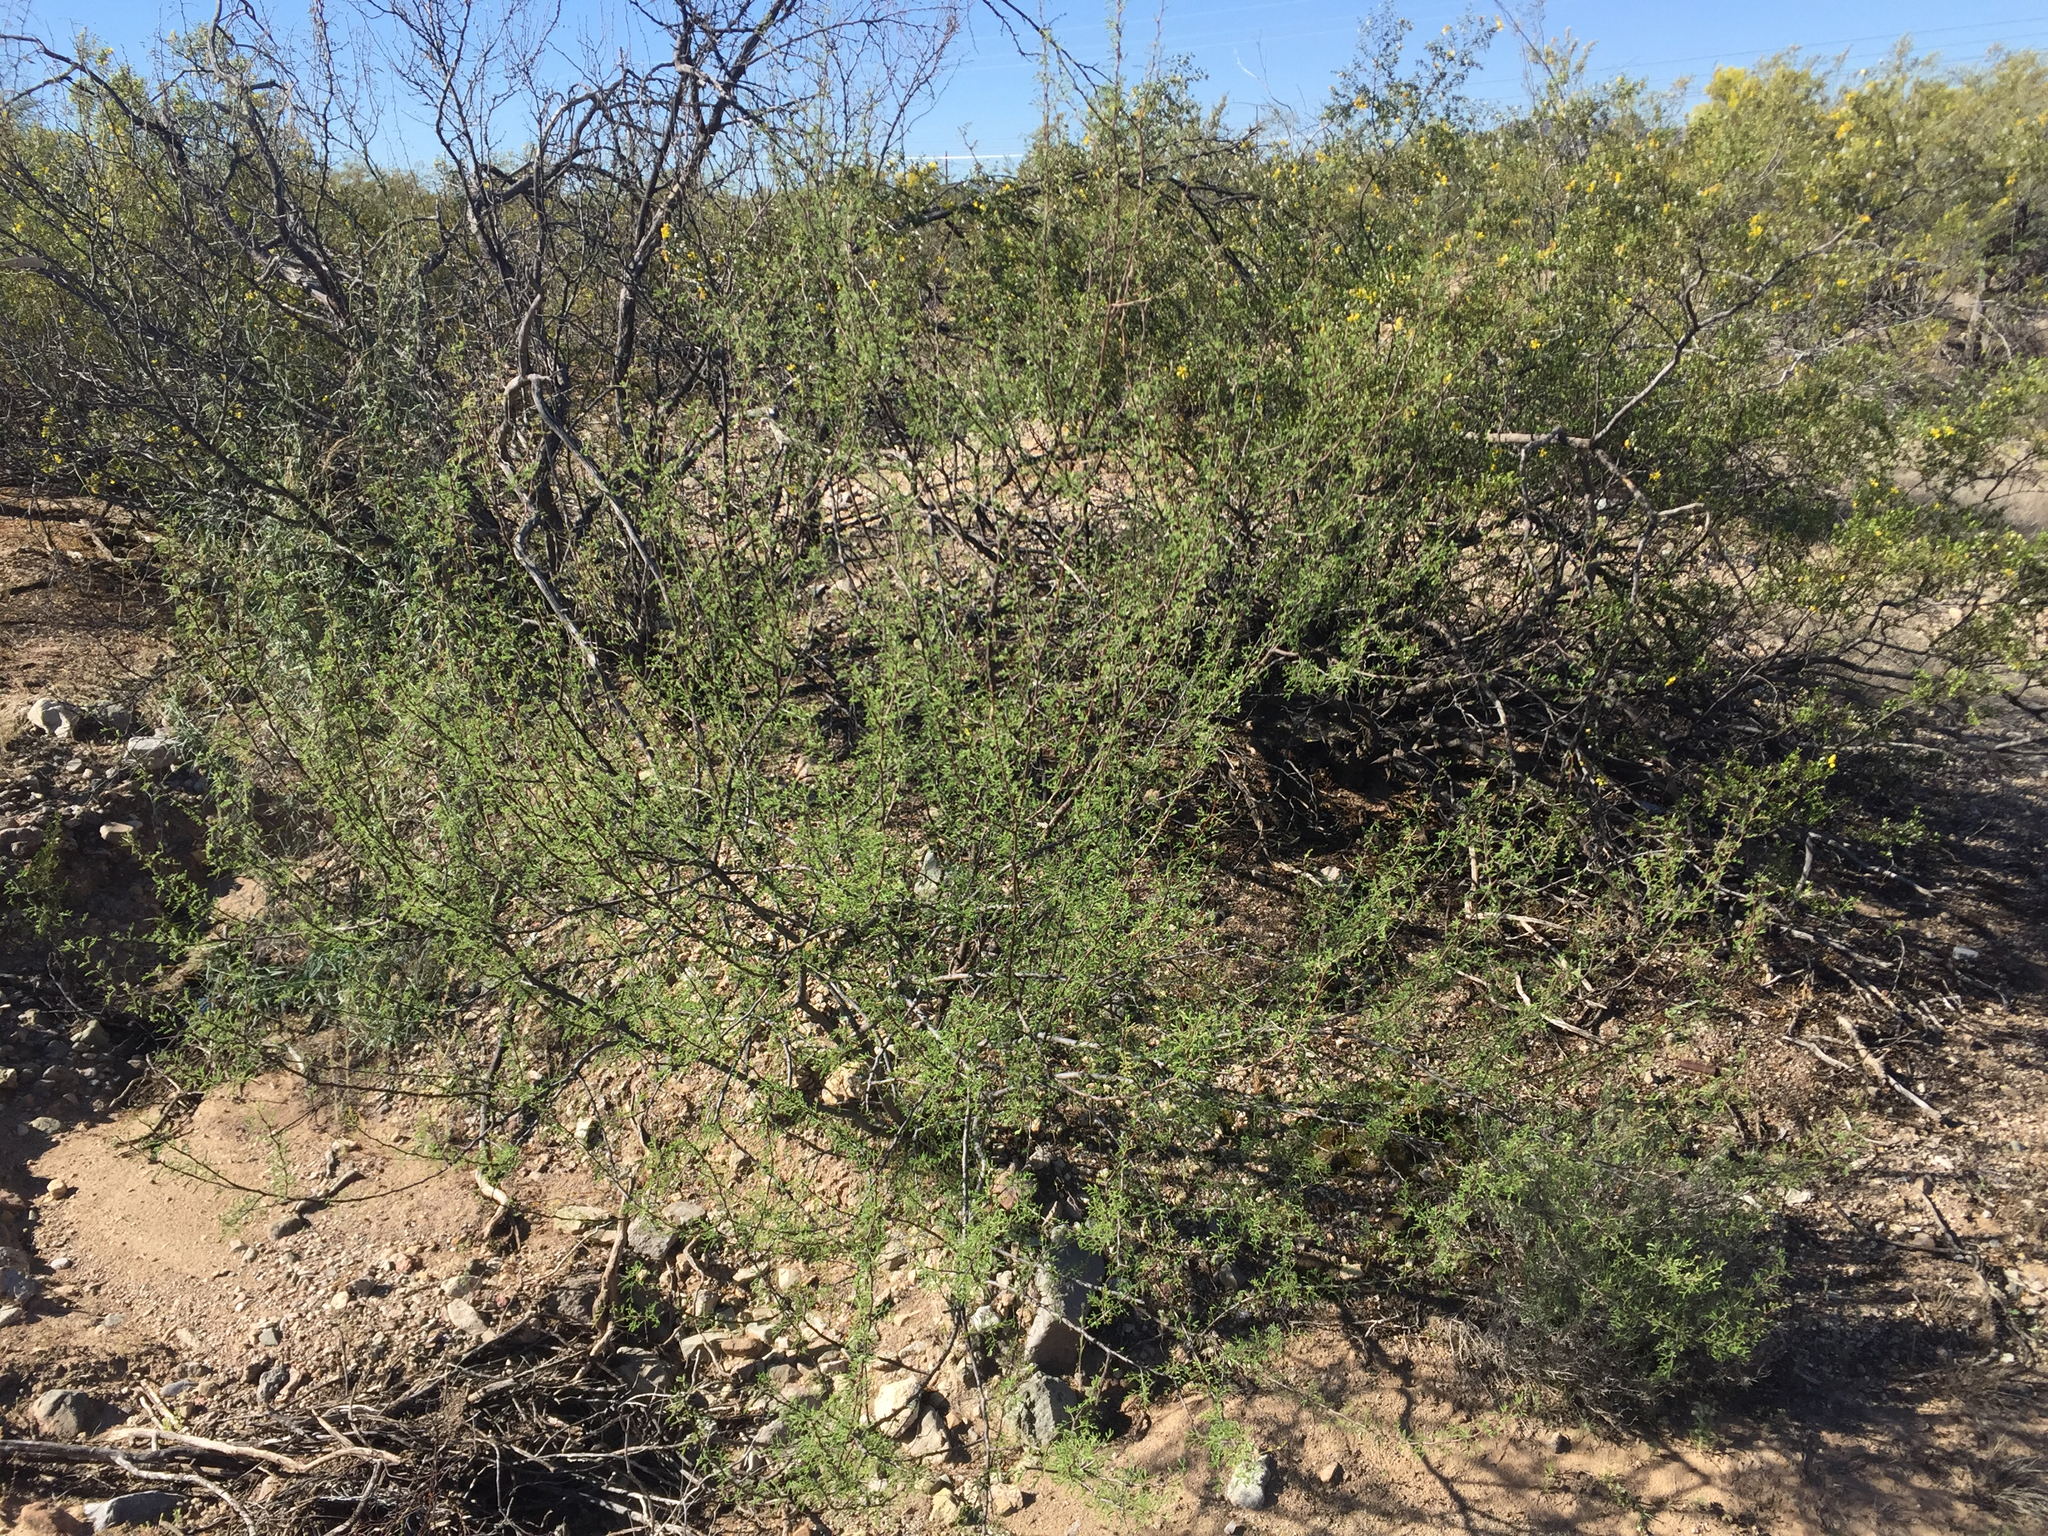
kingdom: Plantae
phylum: Tracheophyta
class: Magnoliopsida
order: Fabales
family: Fabaceae
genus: Senegalia
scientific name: Senegalia greggii
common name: Texas-mimosa
